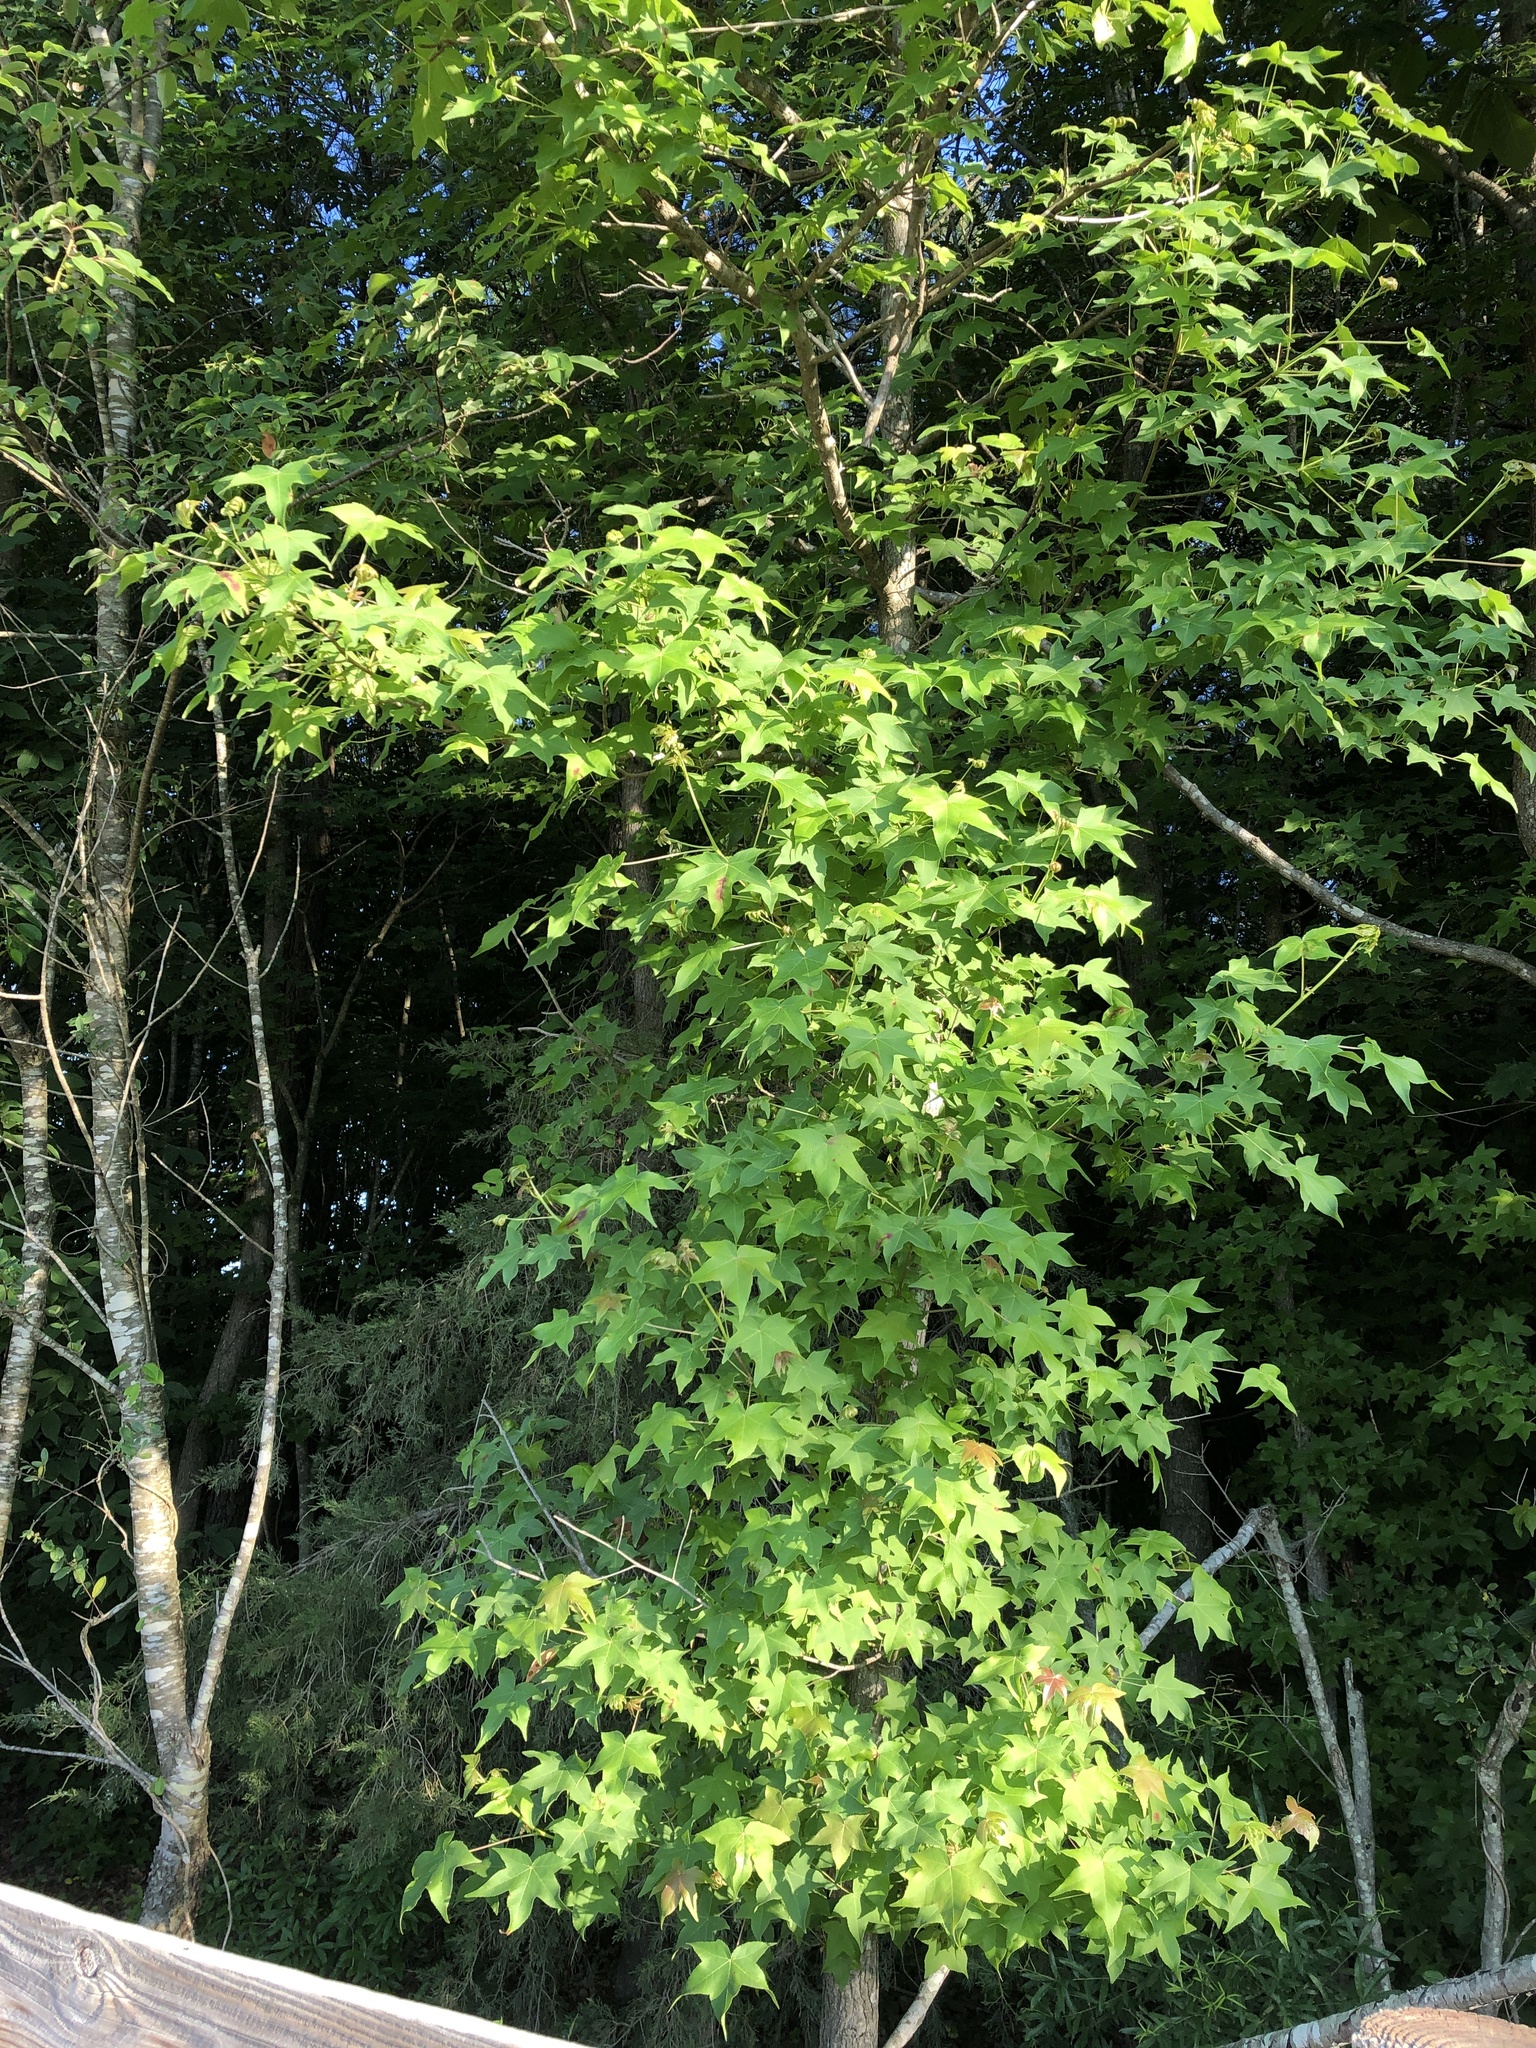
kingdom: Plantae
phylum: Tracheophyta
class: Magnoliopsida
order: Saxifragales
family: Altingiaceae
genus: Liquidambar
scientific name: Liquidambar styraciflua
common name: Sweet gum
